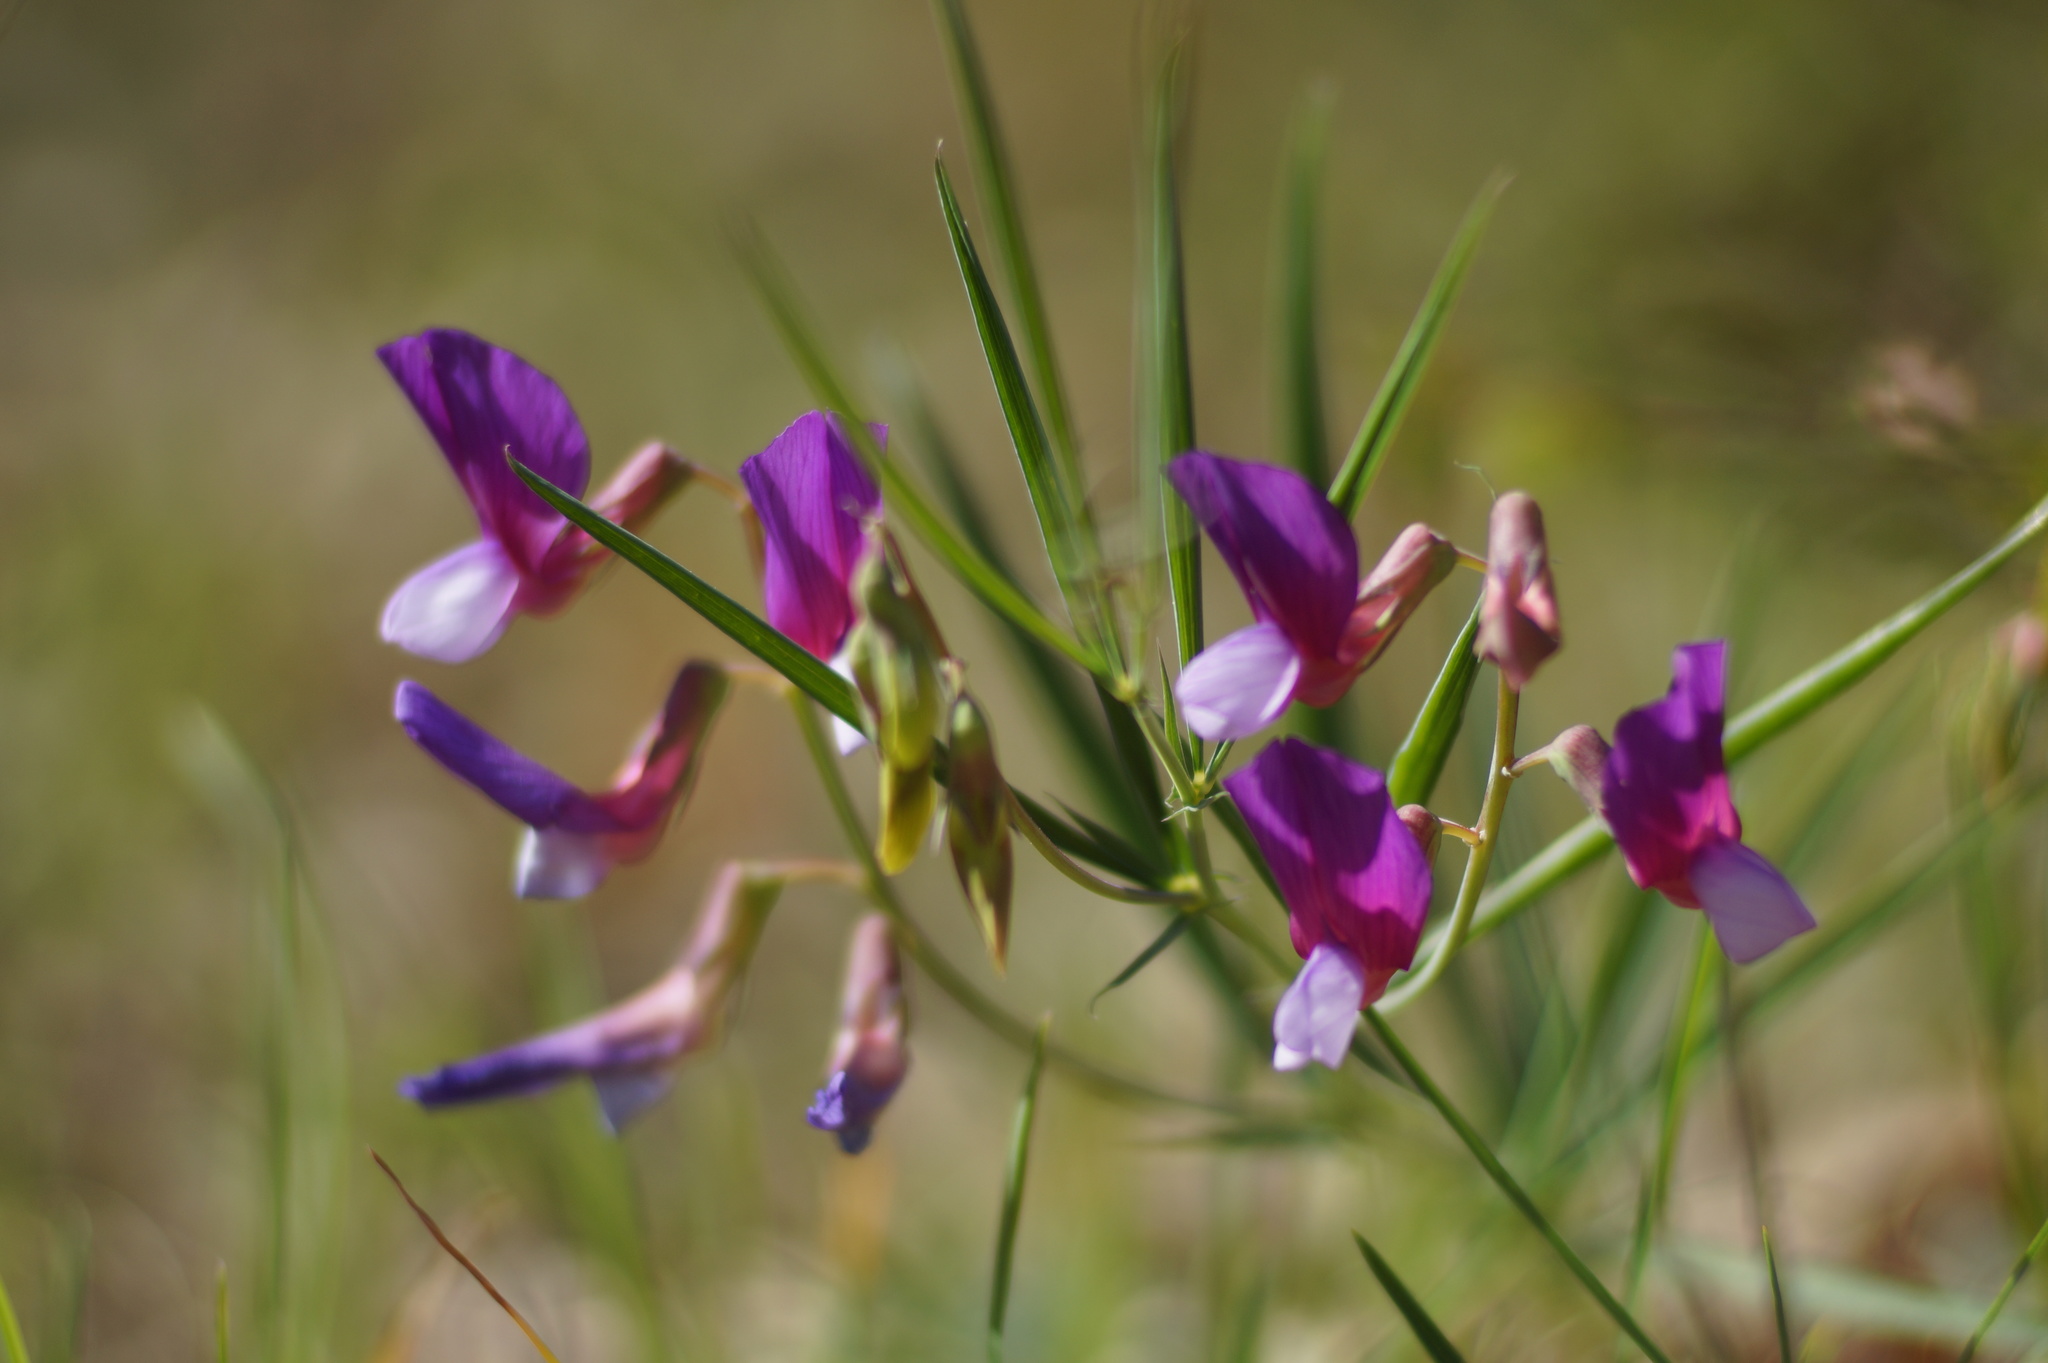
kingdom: Plantae
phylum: Tracheophyta
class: Magnoliopsida
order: Fabales
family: Fabaceae
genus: Lathyrus
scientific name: Lathyrus digitatus
